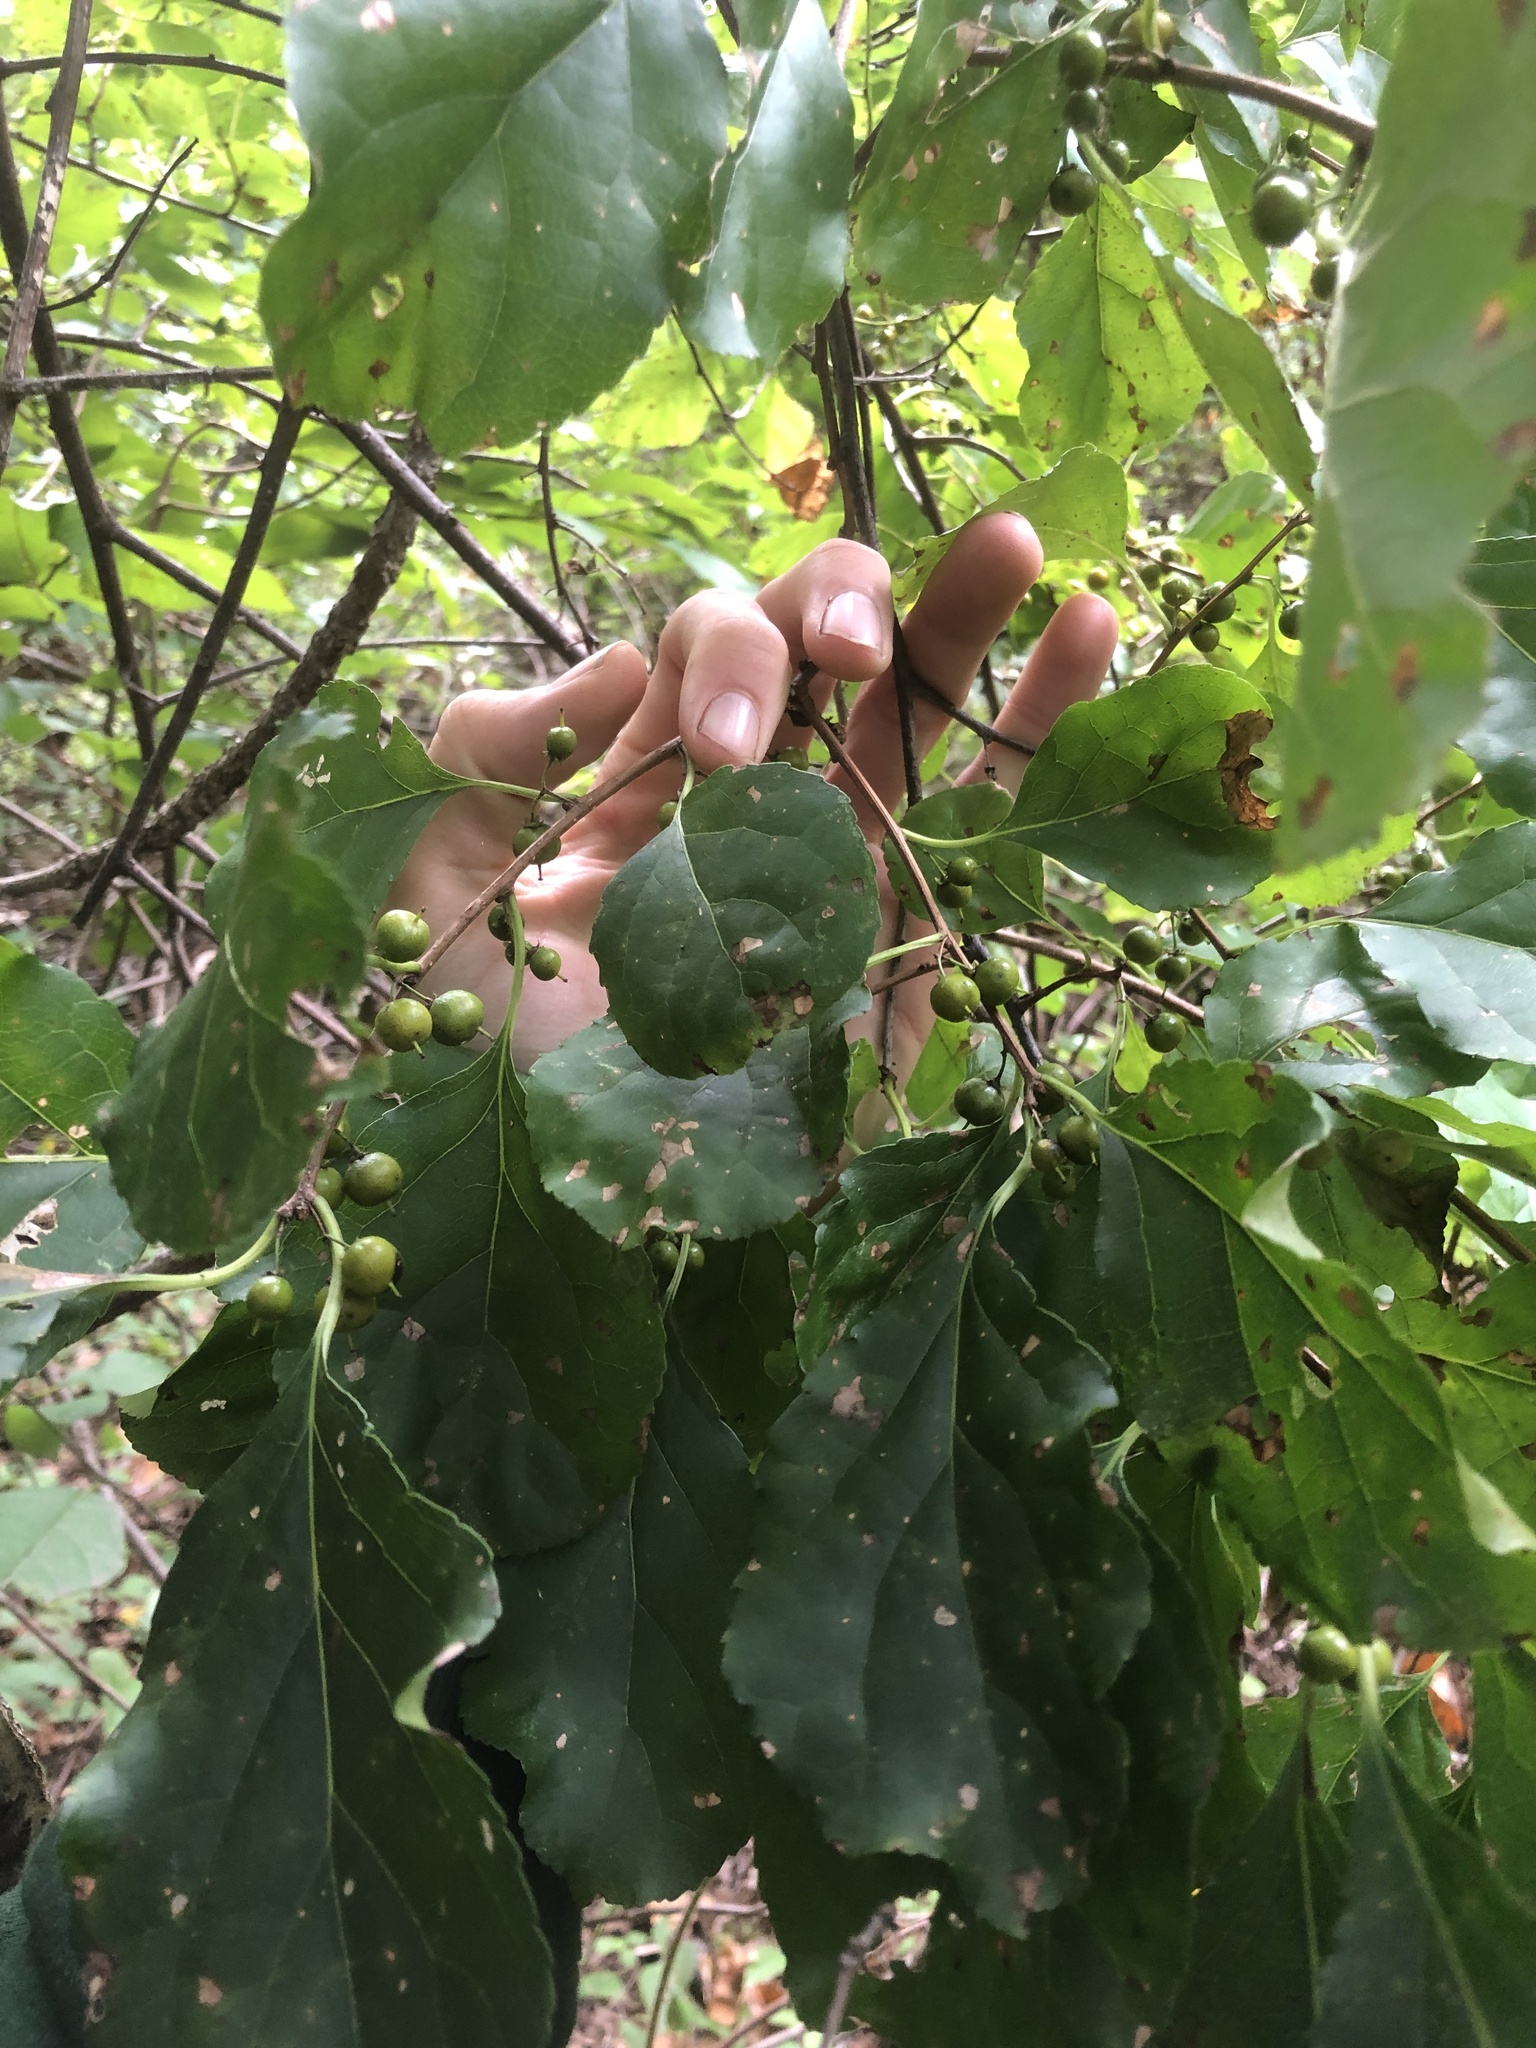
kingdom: Plantae
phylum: Tracheophyta
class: Magnoliopsida
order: Celastrales
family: Celastraceae
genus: Celastrus
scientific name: Celastrus orbiculatus
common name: Oriental bittersweet
